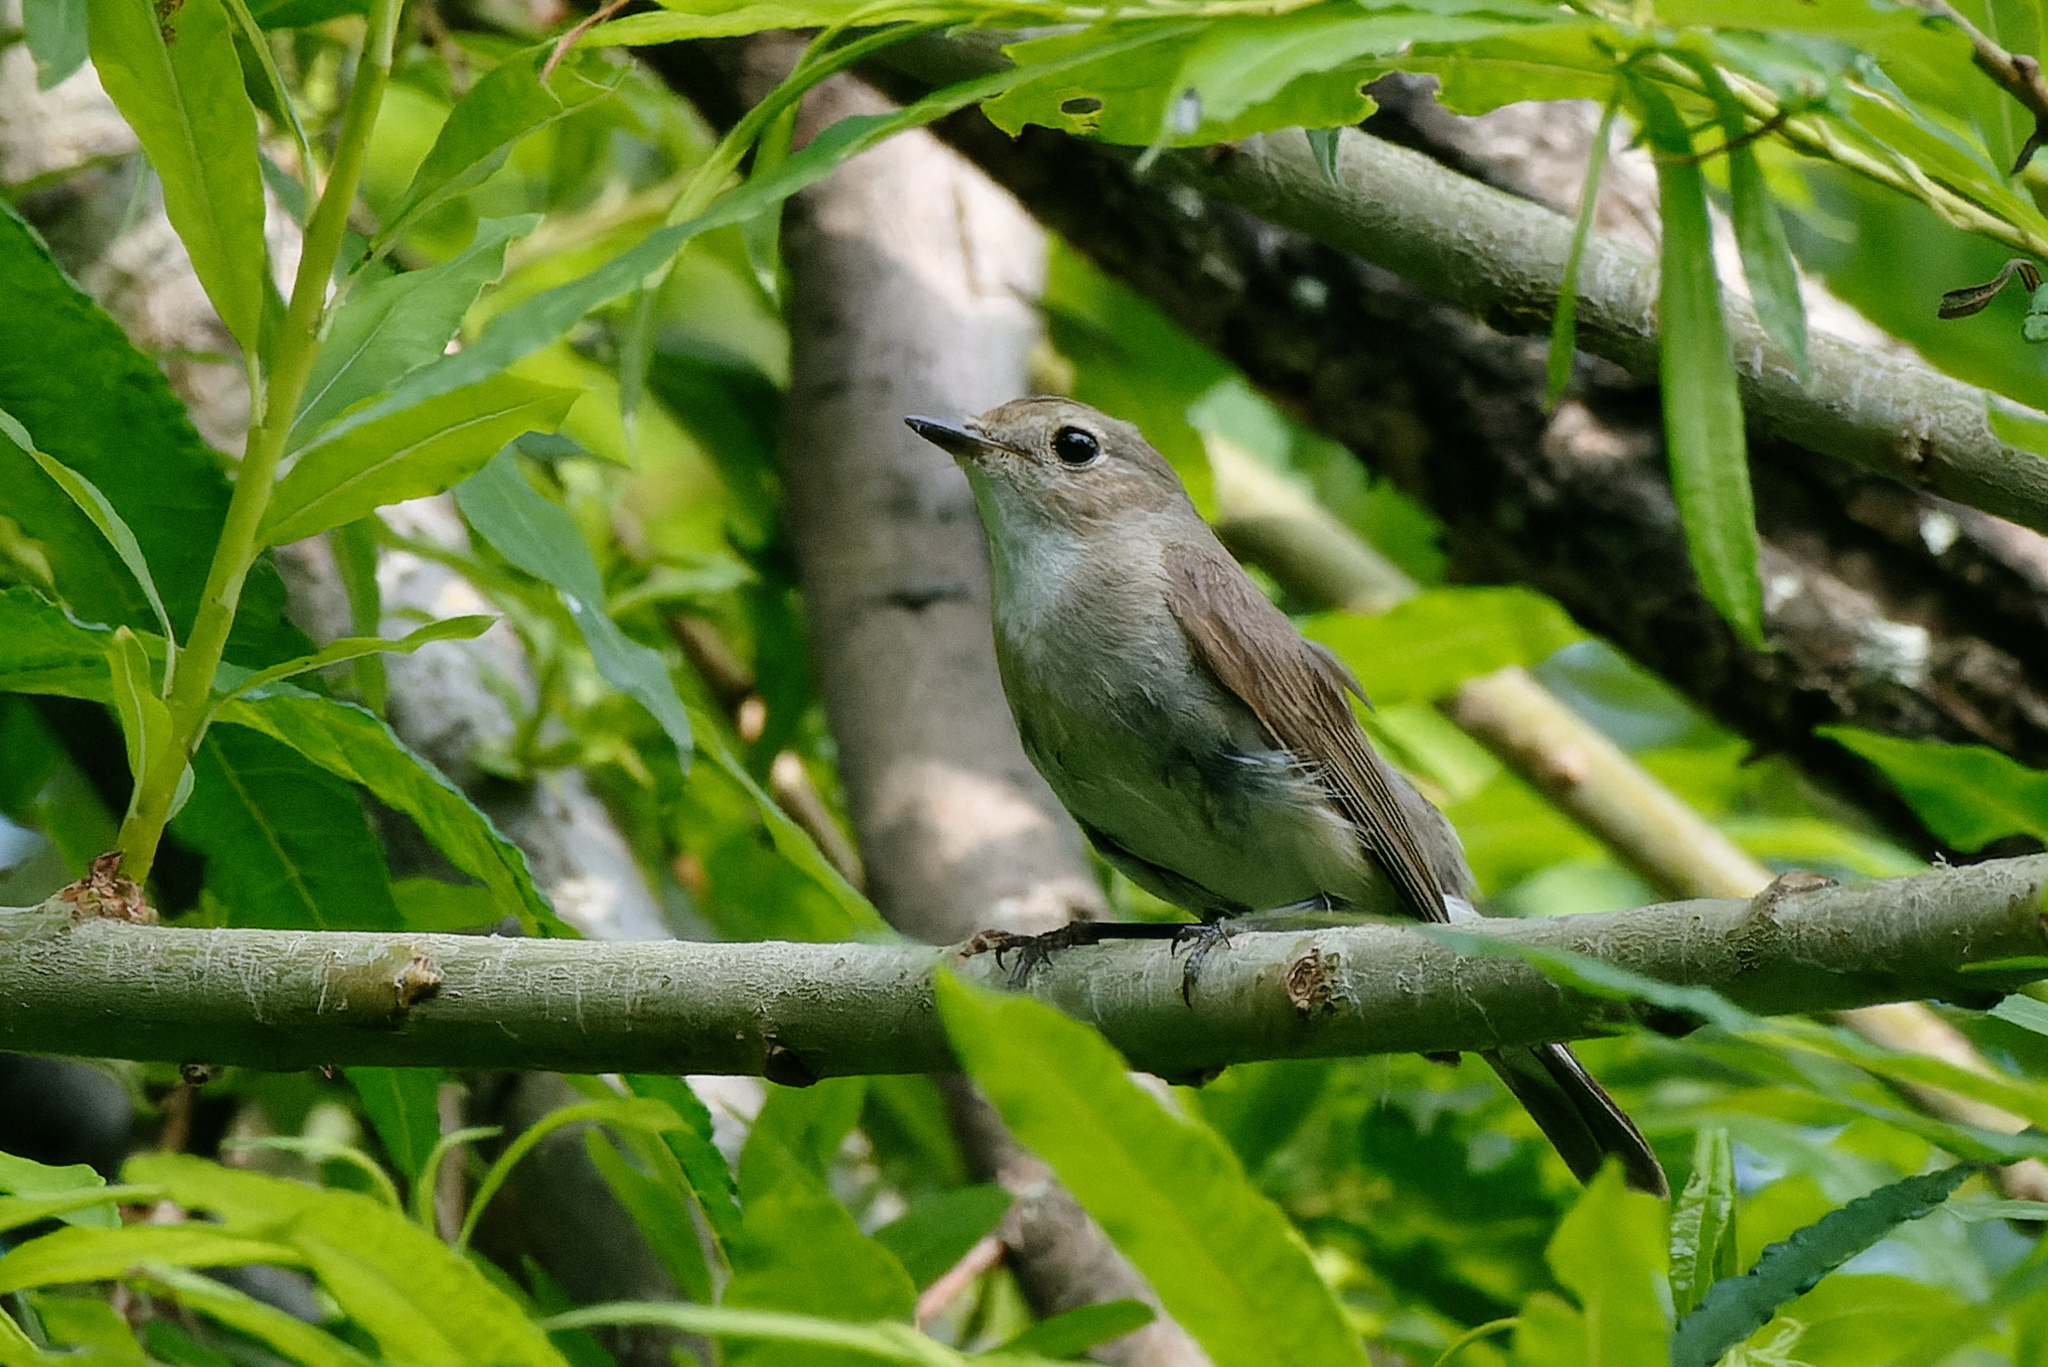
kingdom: Animalia
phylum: Chordata
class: Aves
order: Passeriformes
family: Muscicapidae
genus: Ficedula
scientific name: Ficedula albicilla
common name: Taiga flycatcher
